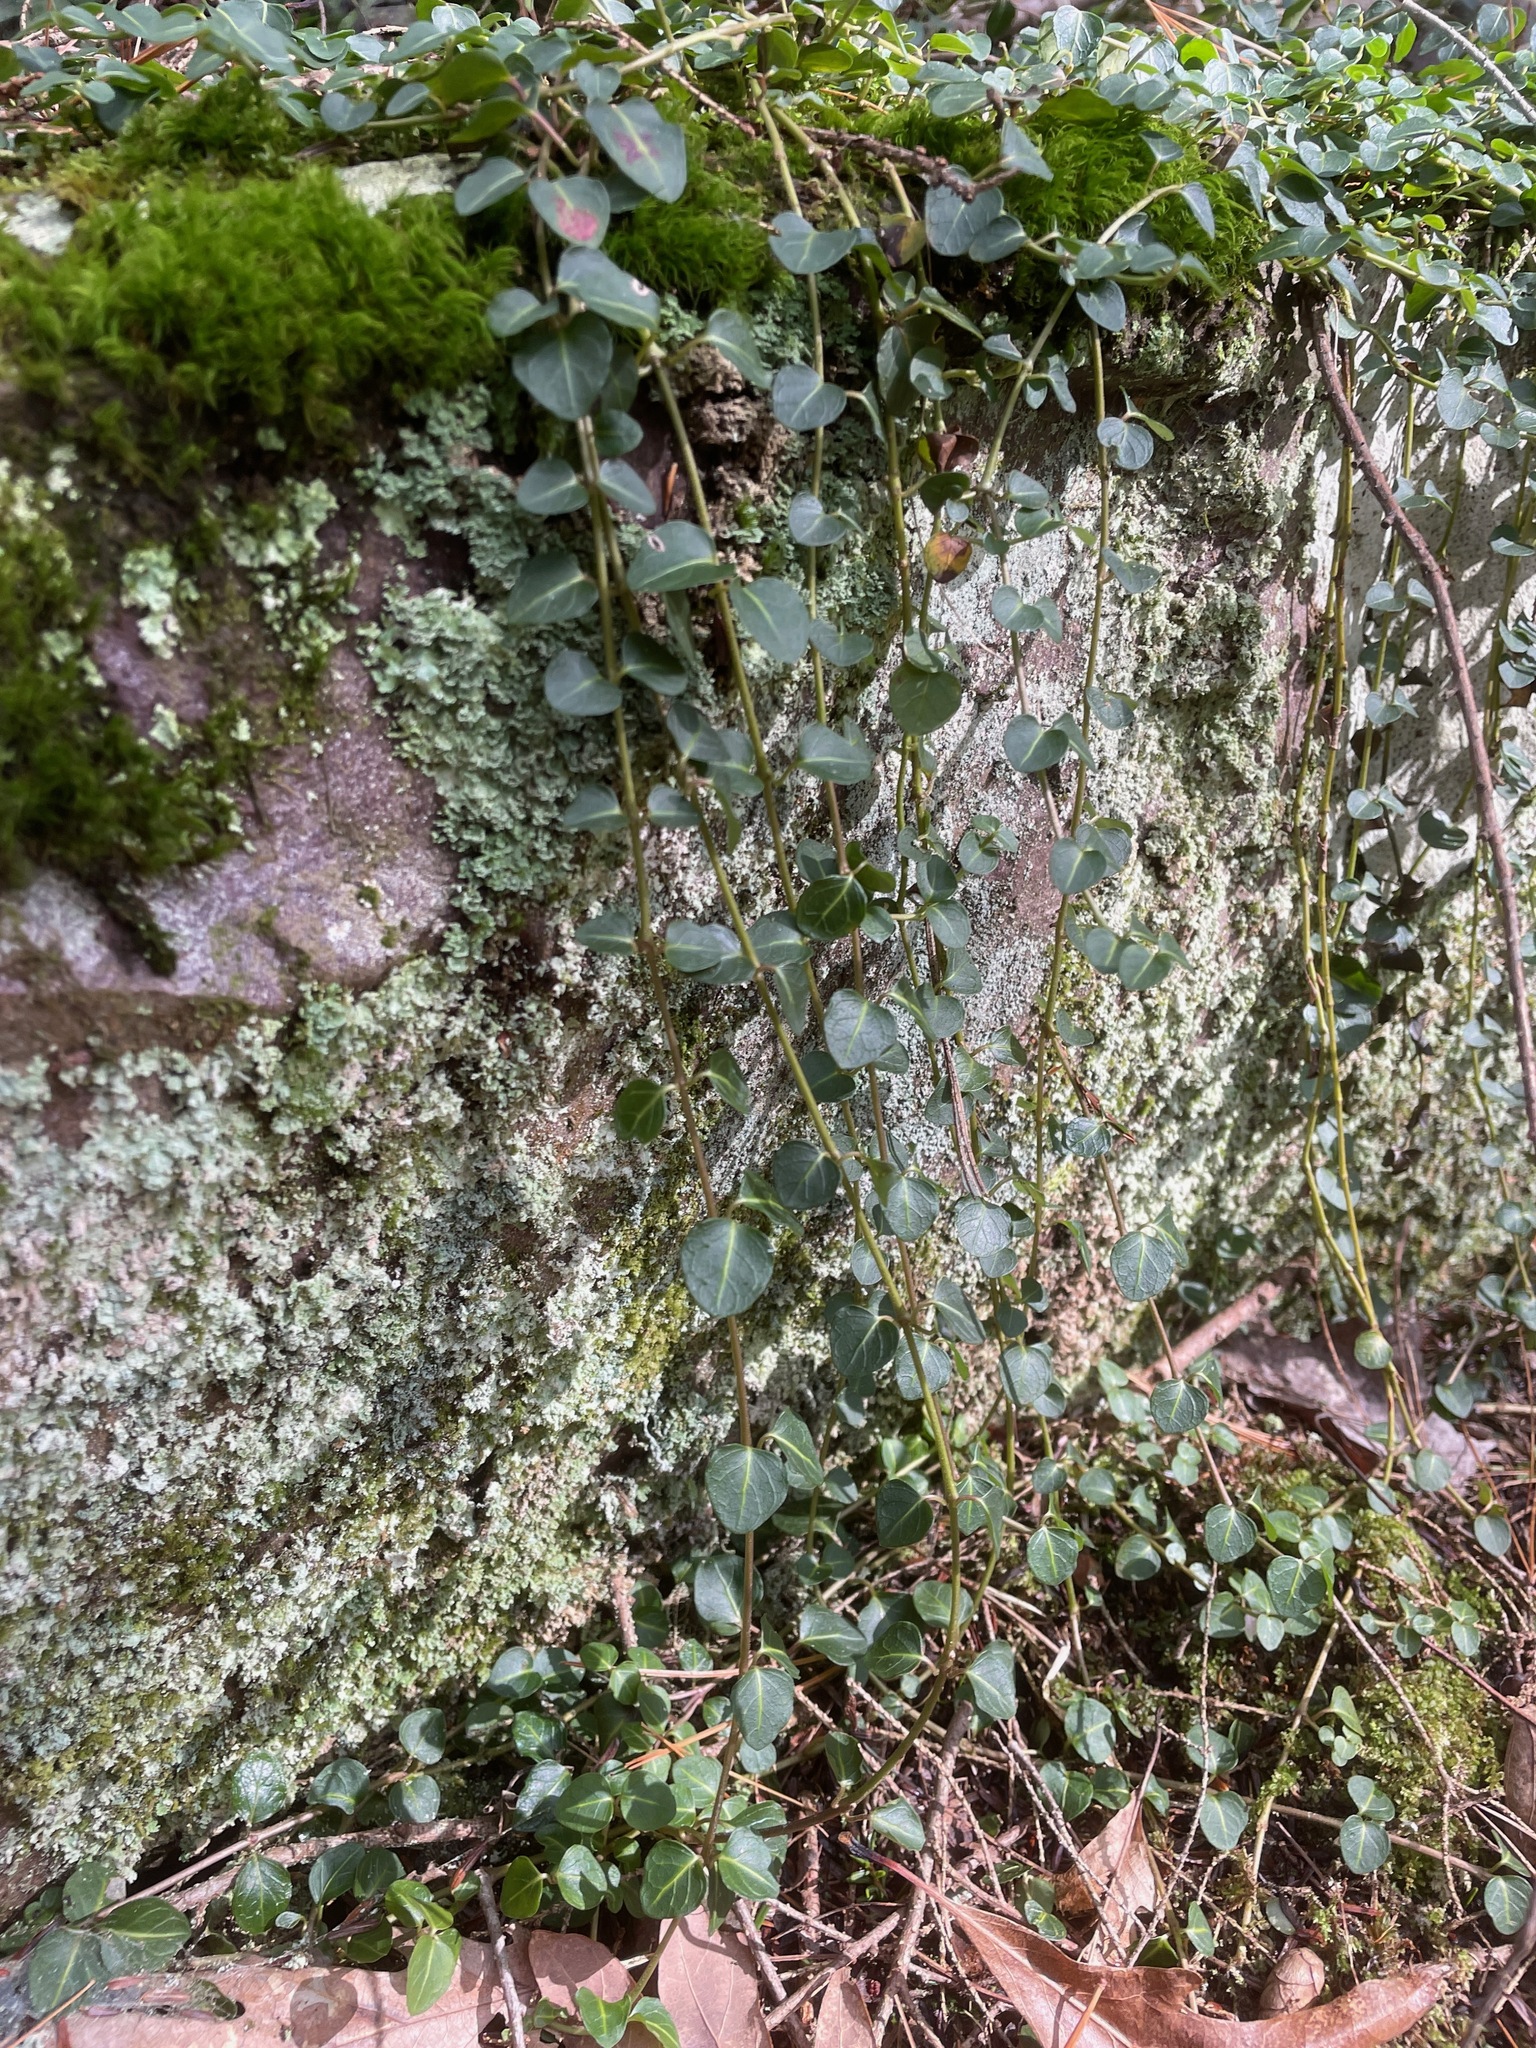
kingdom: Plantae
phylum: Tracheophyta
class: Magnoliopsida
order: Gentianales
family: Rubiaceae
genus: Mitchella
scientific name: Mitchella repens
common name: Partridge-berry
